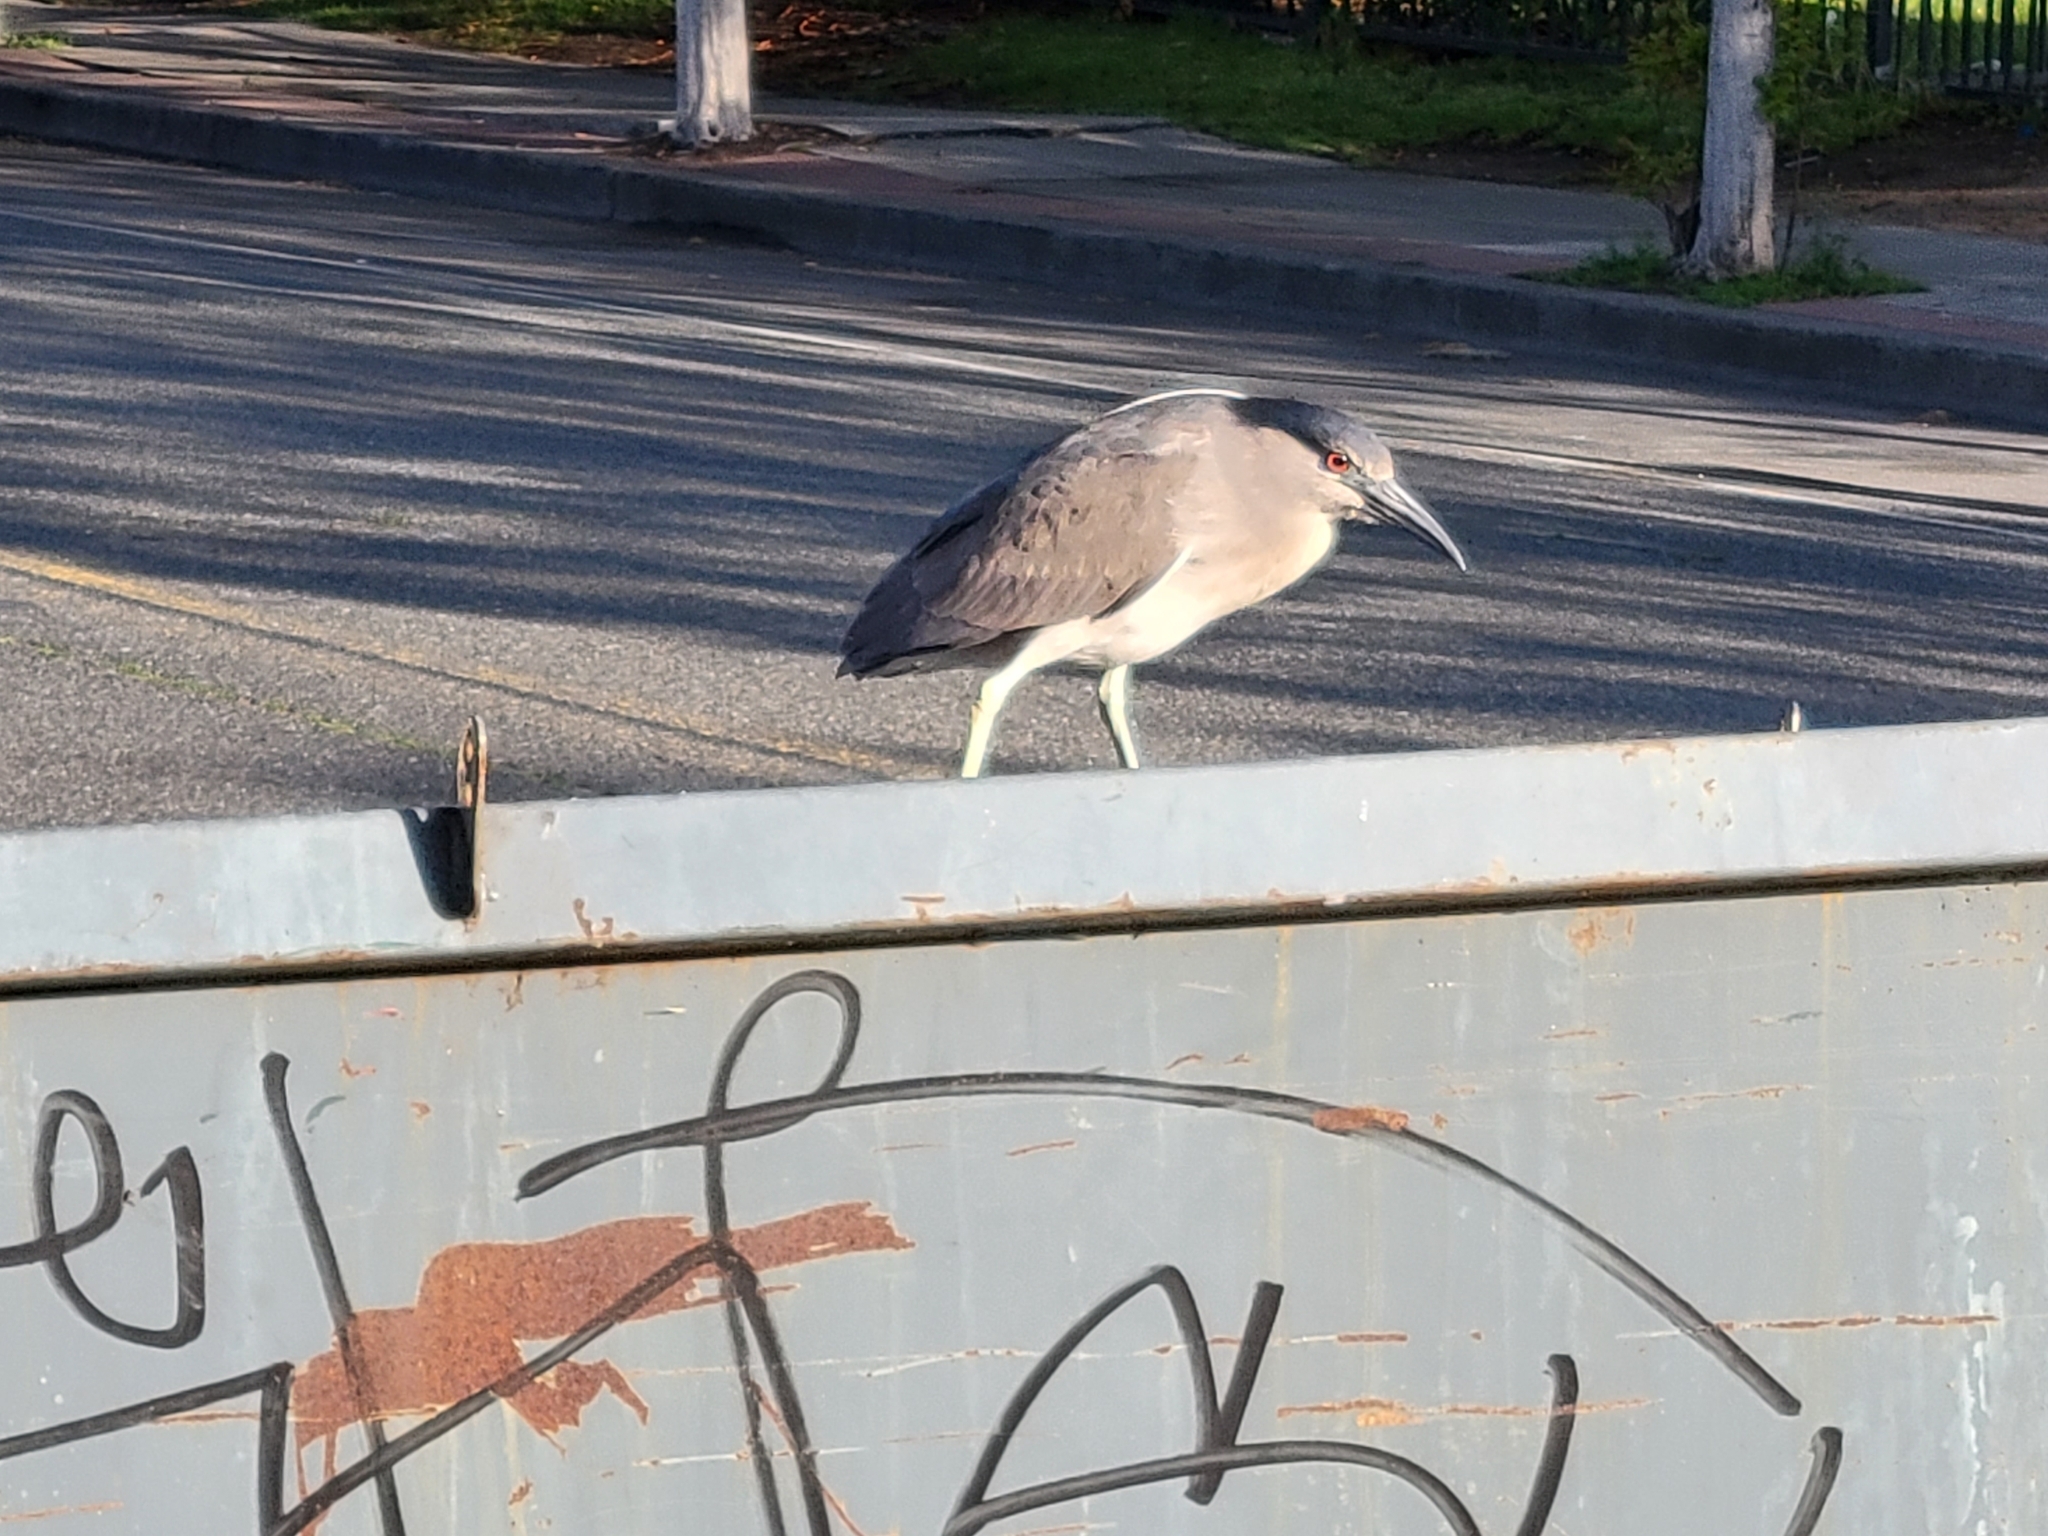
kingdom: Animalia
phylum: Chordata
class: Aves
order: Pelecaniformes
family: Ardeidae
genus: Nycticorax
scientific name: Nycticorax nycticorax
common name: Black-crowned night heron
